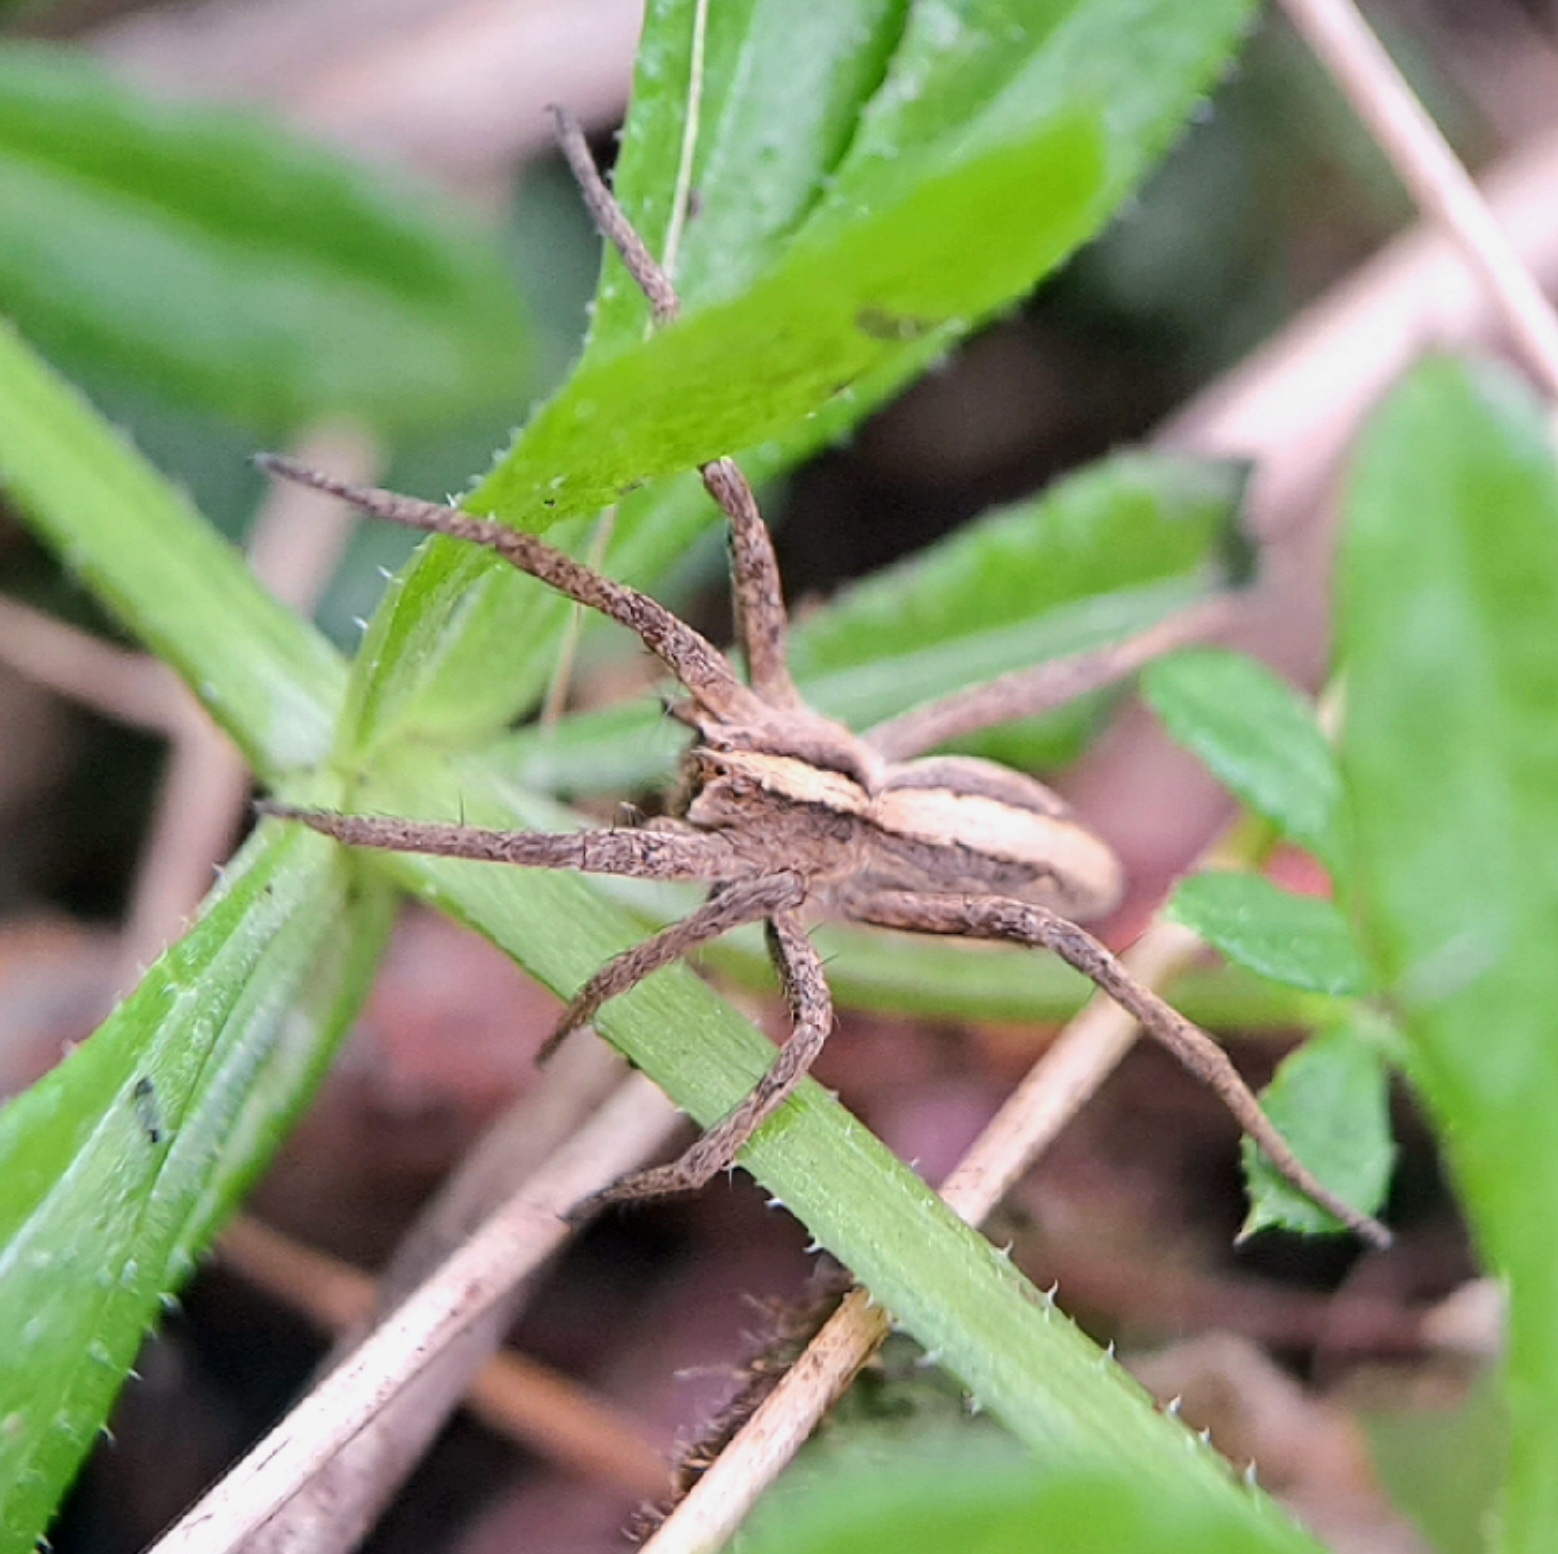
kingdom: Animalia
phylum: Arthropoda
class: Arachnida
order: Araneae
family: Pisauridae
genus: Pisaura
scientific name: Pisaura mirabilis
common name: Tent spider
